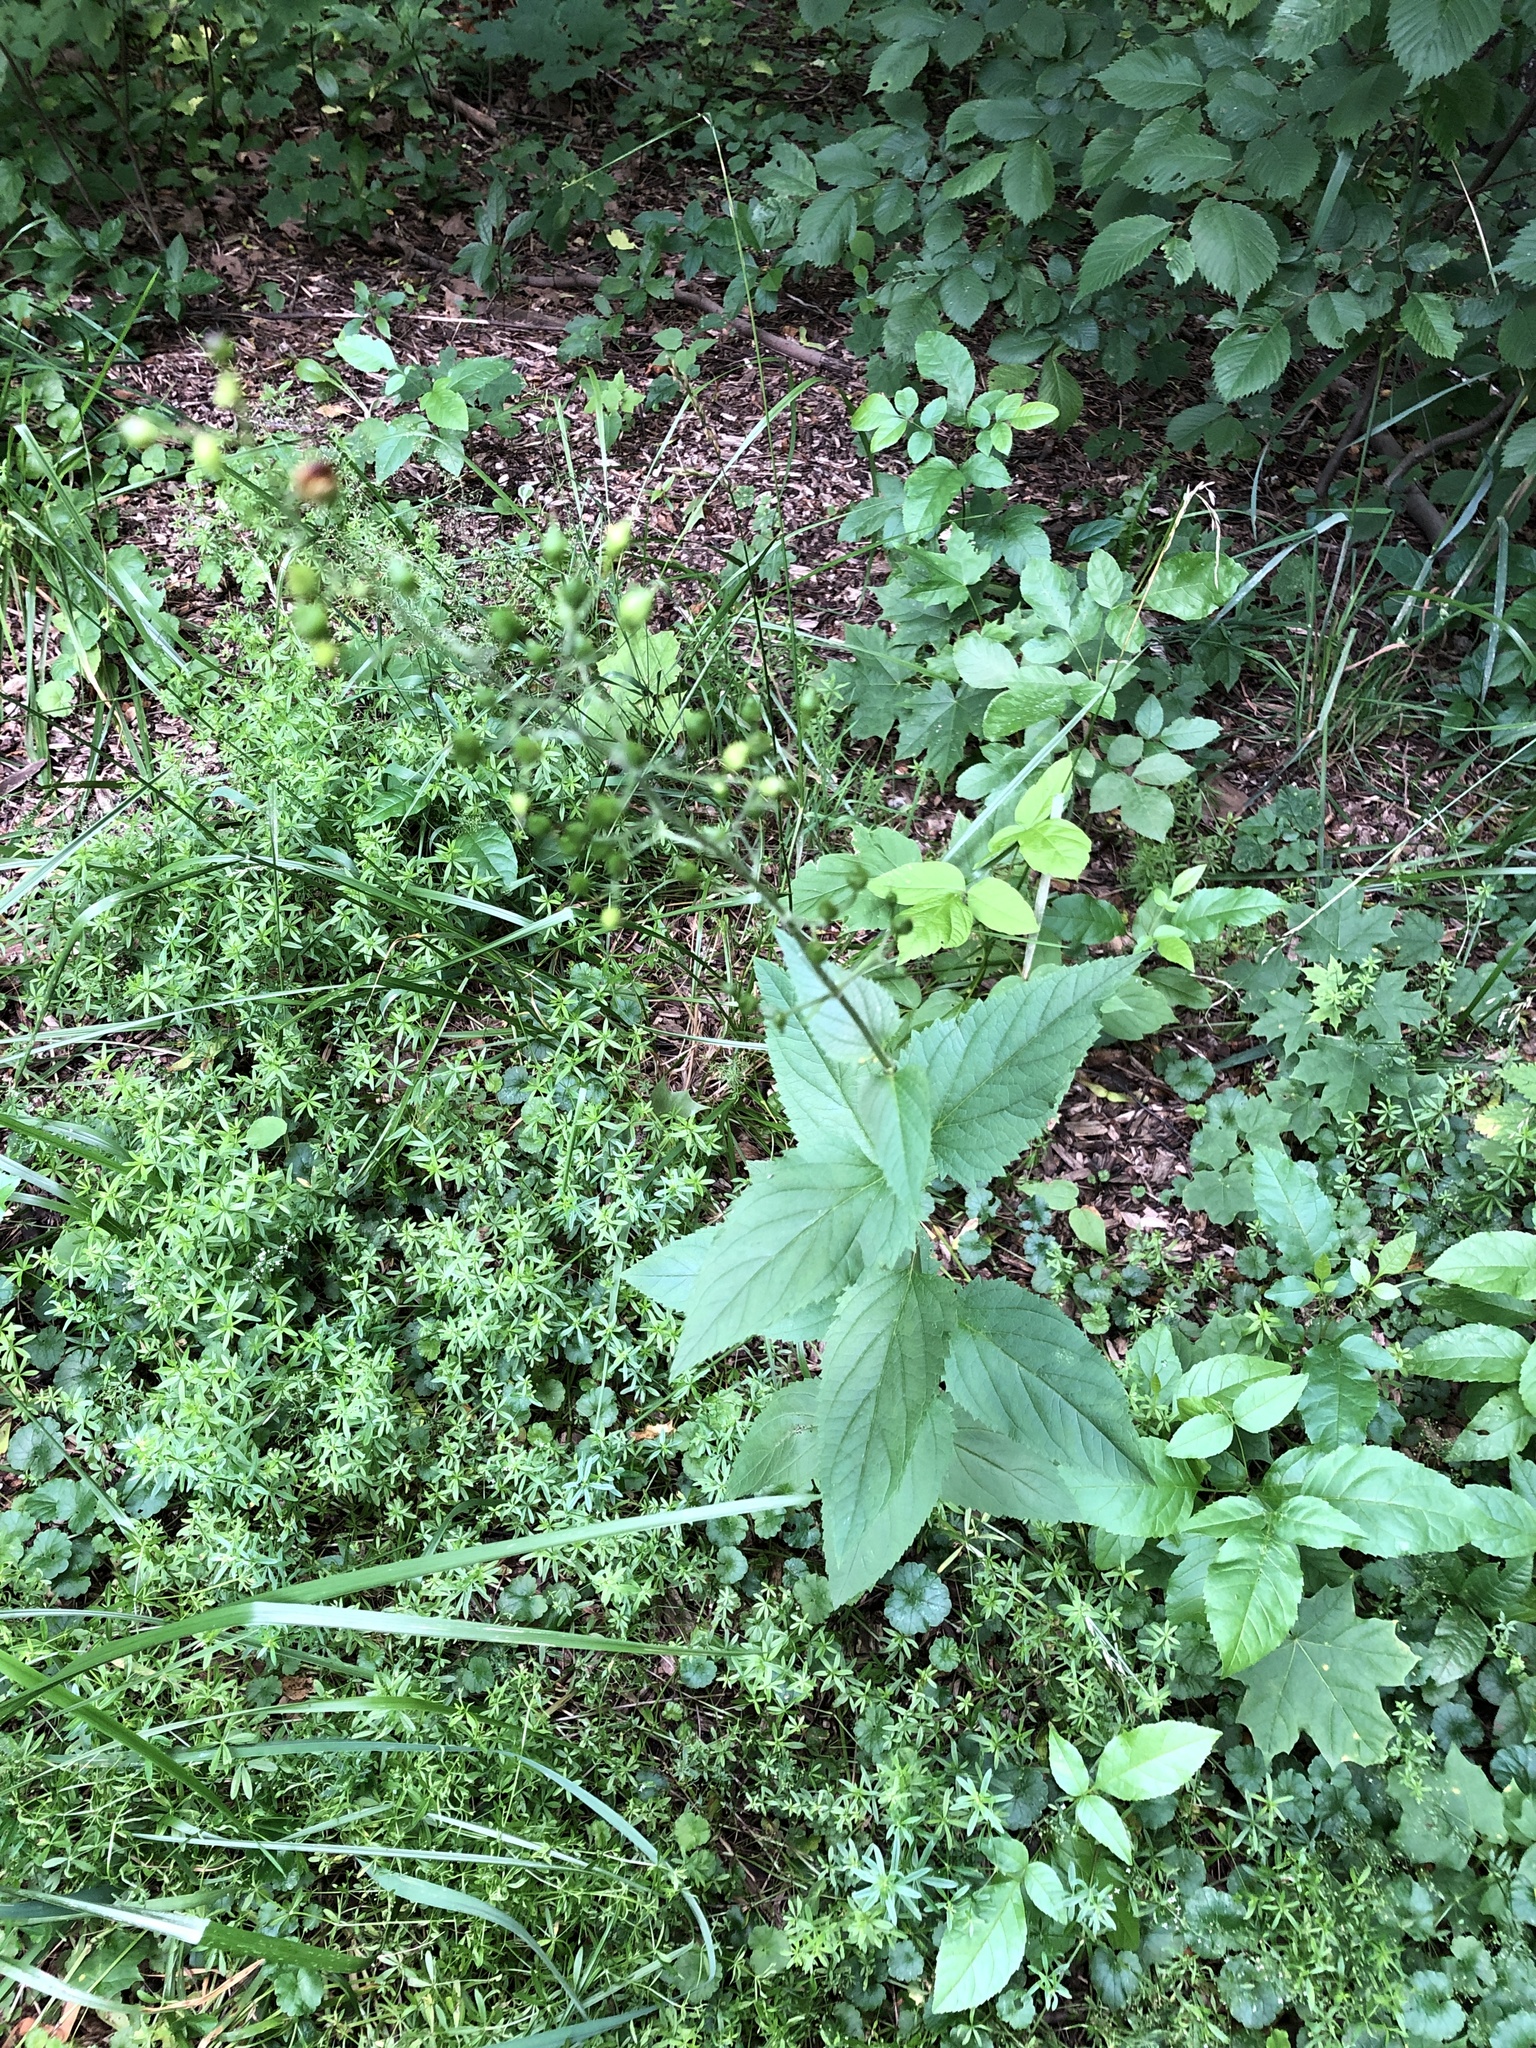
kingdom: Plantae
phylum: Tracheophyta
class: Magnoliopsida
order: Lamiales
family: Scrophulariaceae
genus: Scrophularia
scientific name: Scrophularia nodosa
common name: Common figwort
